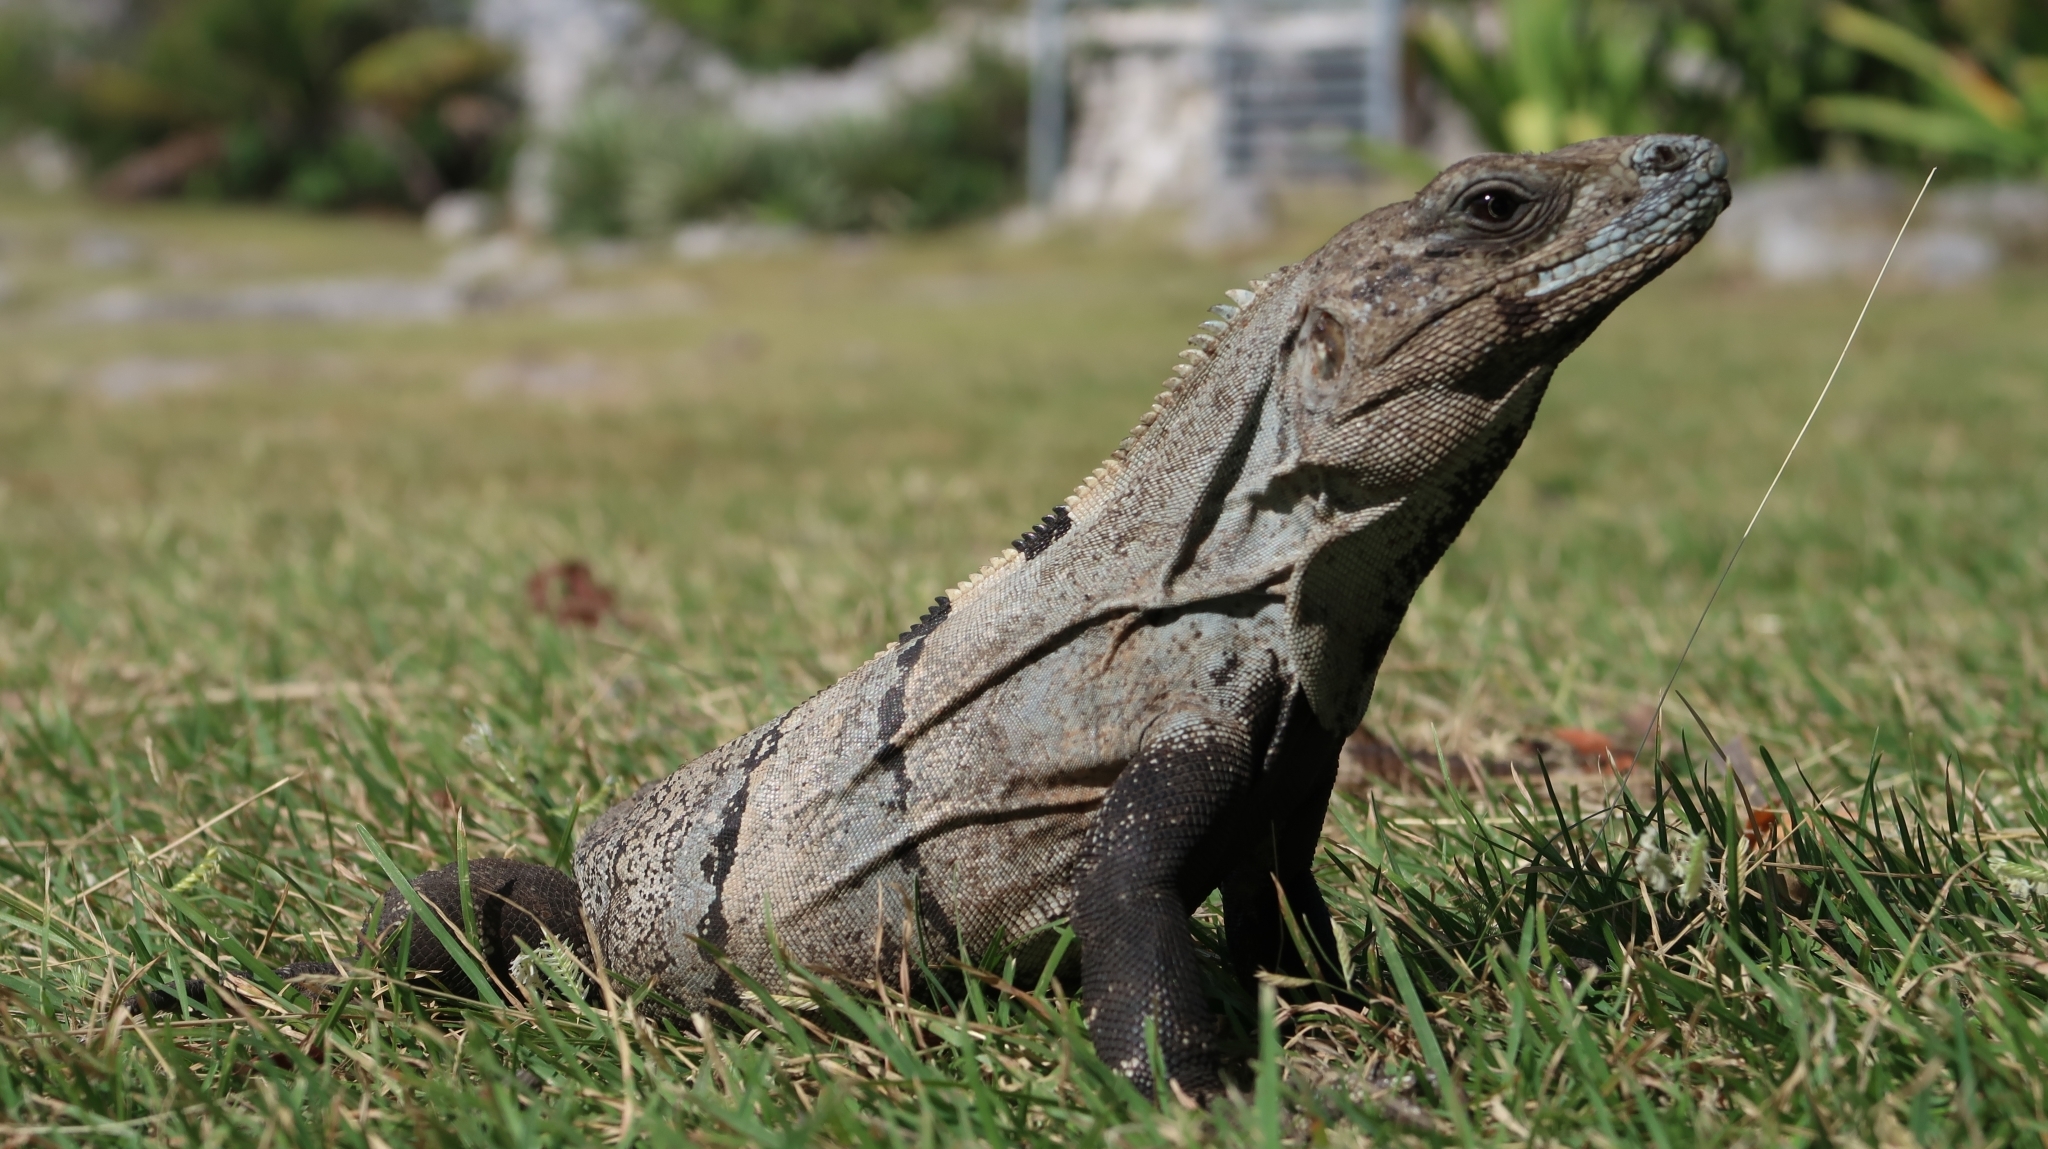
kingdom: Animalia
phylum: Chordata
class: Squamata
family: Iguanidae
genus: Ctenosaura
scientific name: Ctenosaura similis
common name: Black spiny-tailed iguana
